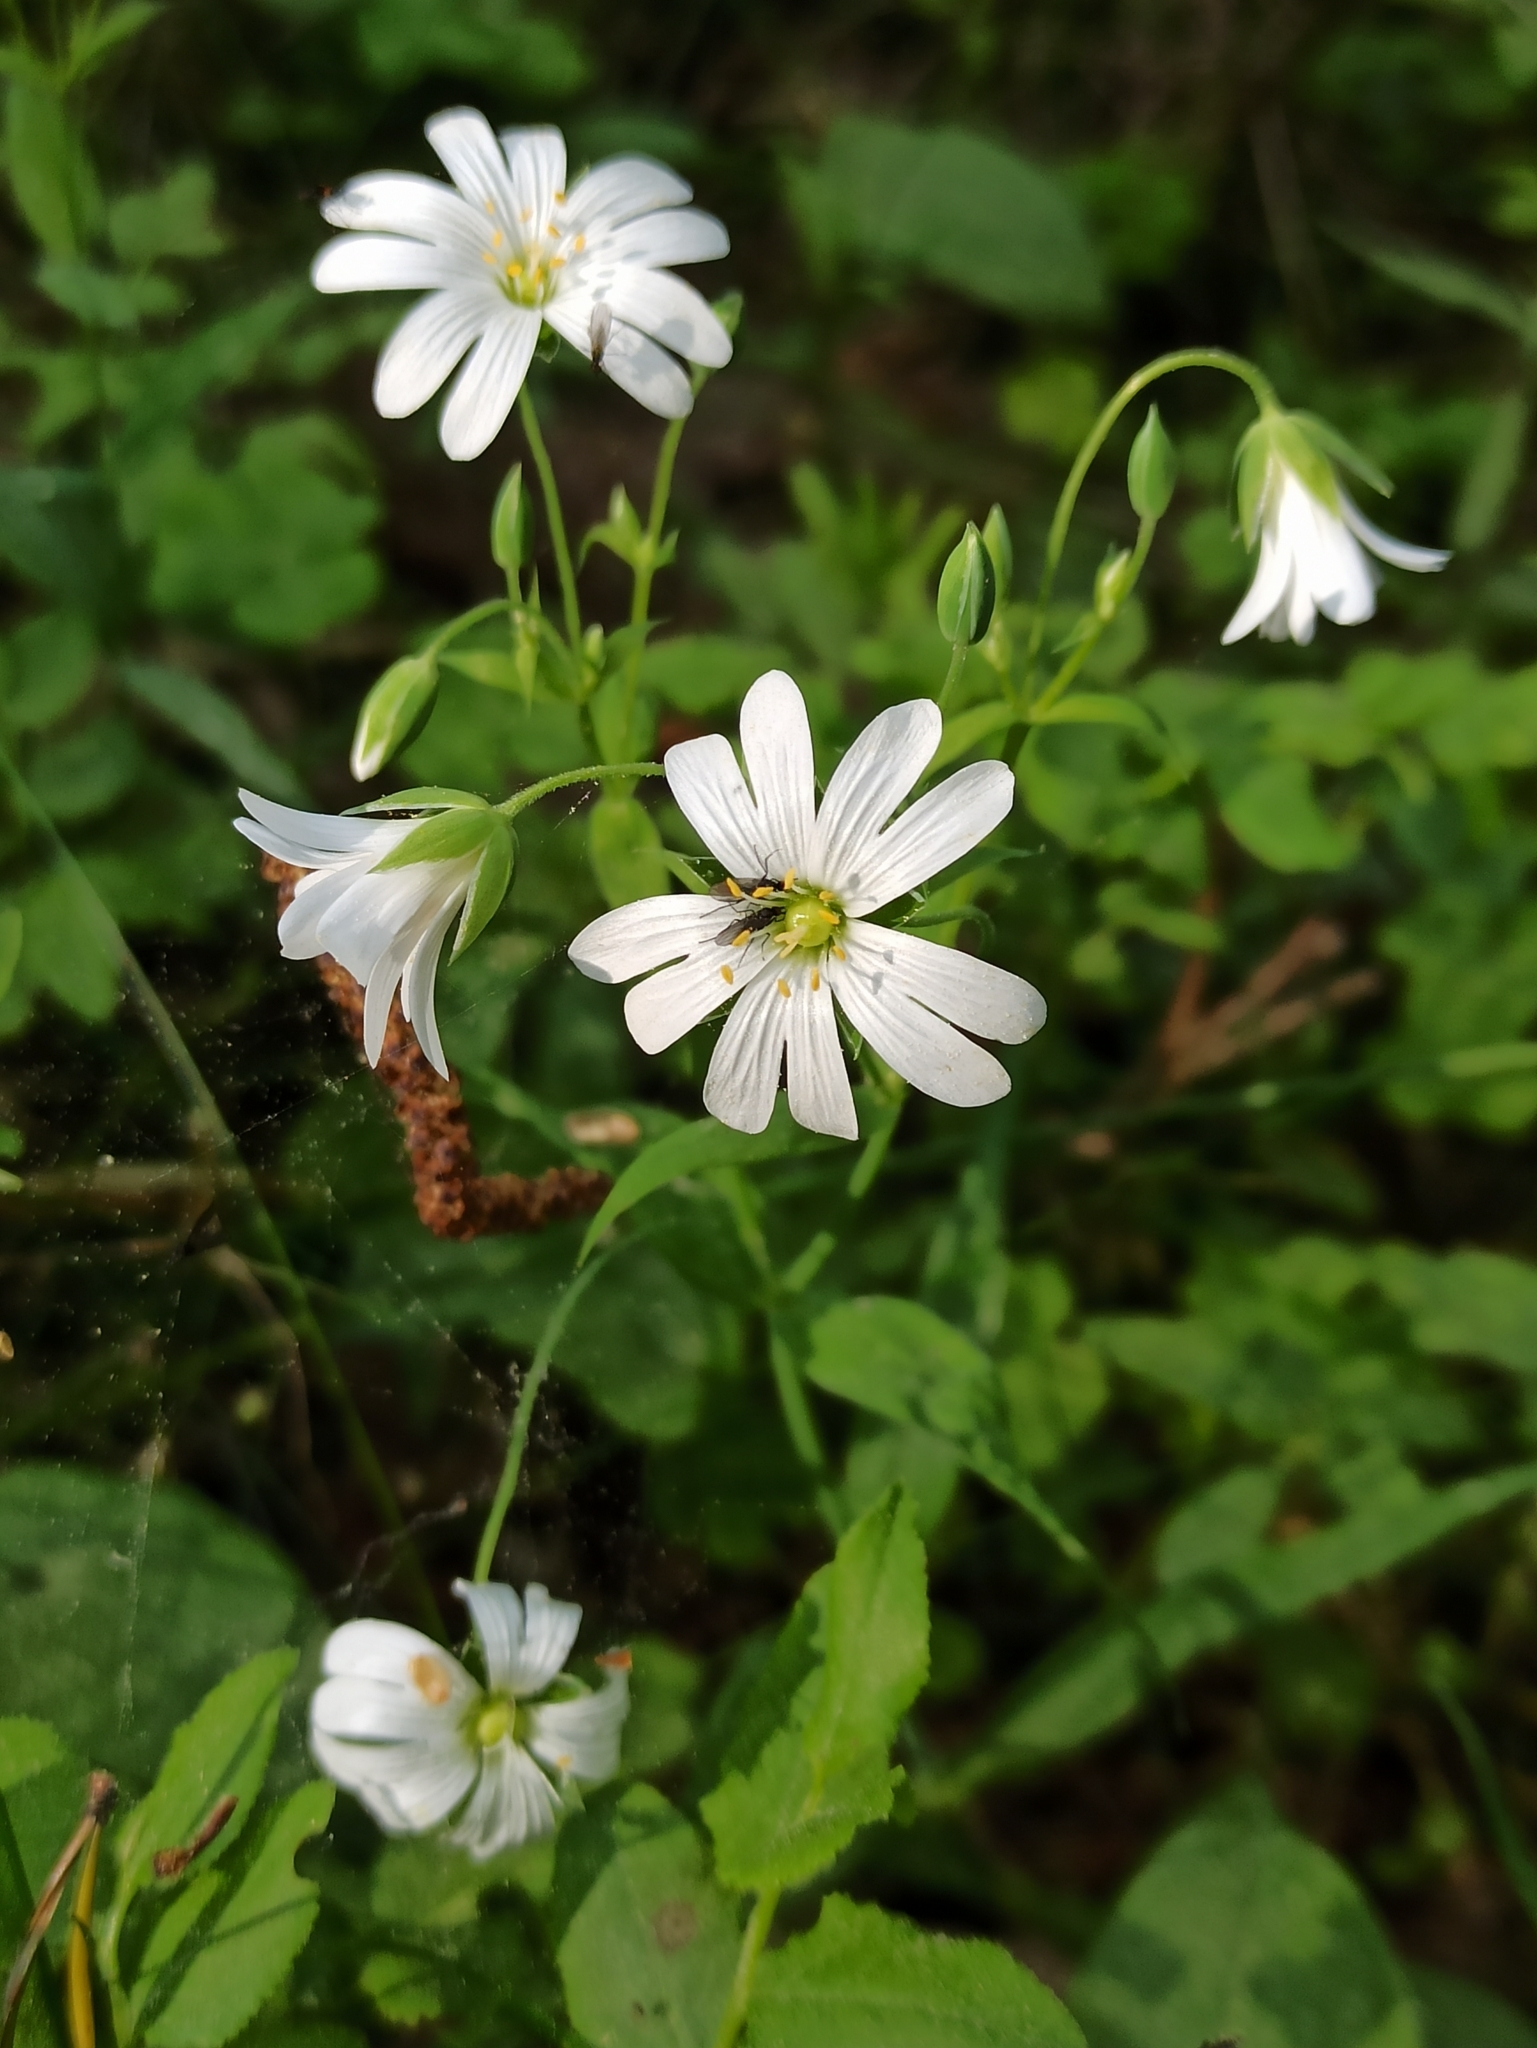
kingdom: Plantae
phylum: Tracheophyta
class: Magnoliopsida
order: Caryophyllales
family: Caryophyllaceae
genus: Rabelera
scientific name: Rabelera holostea
